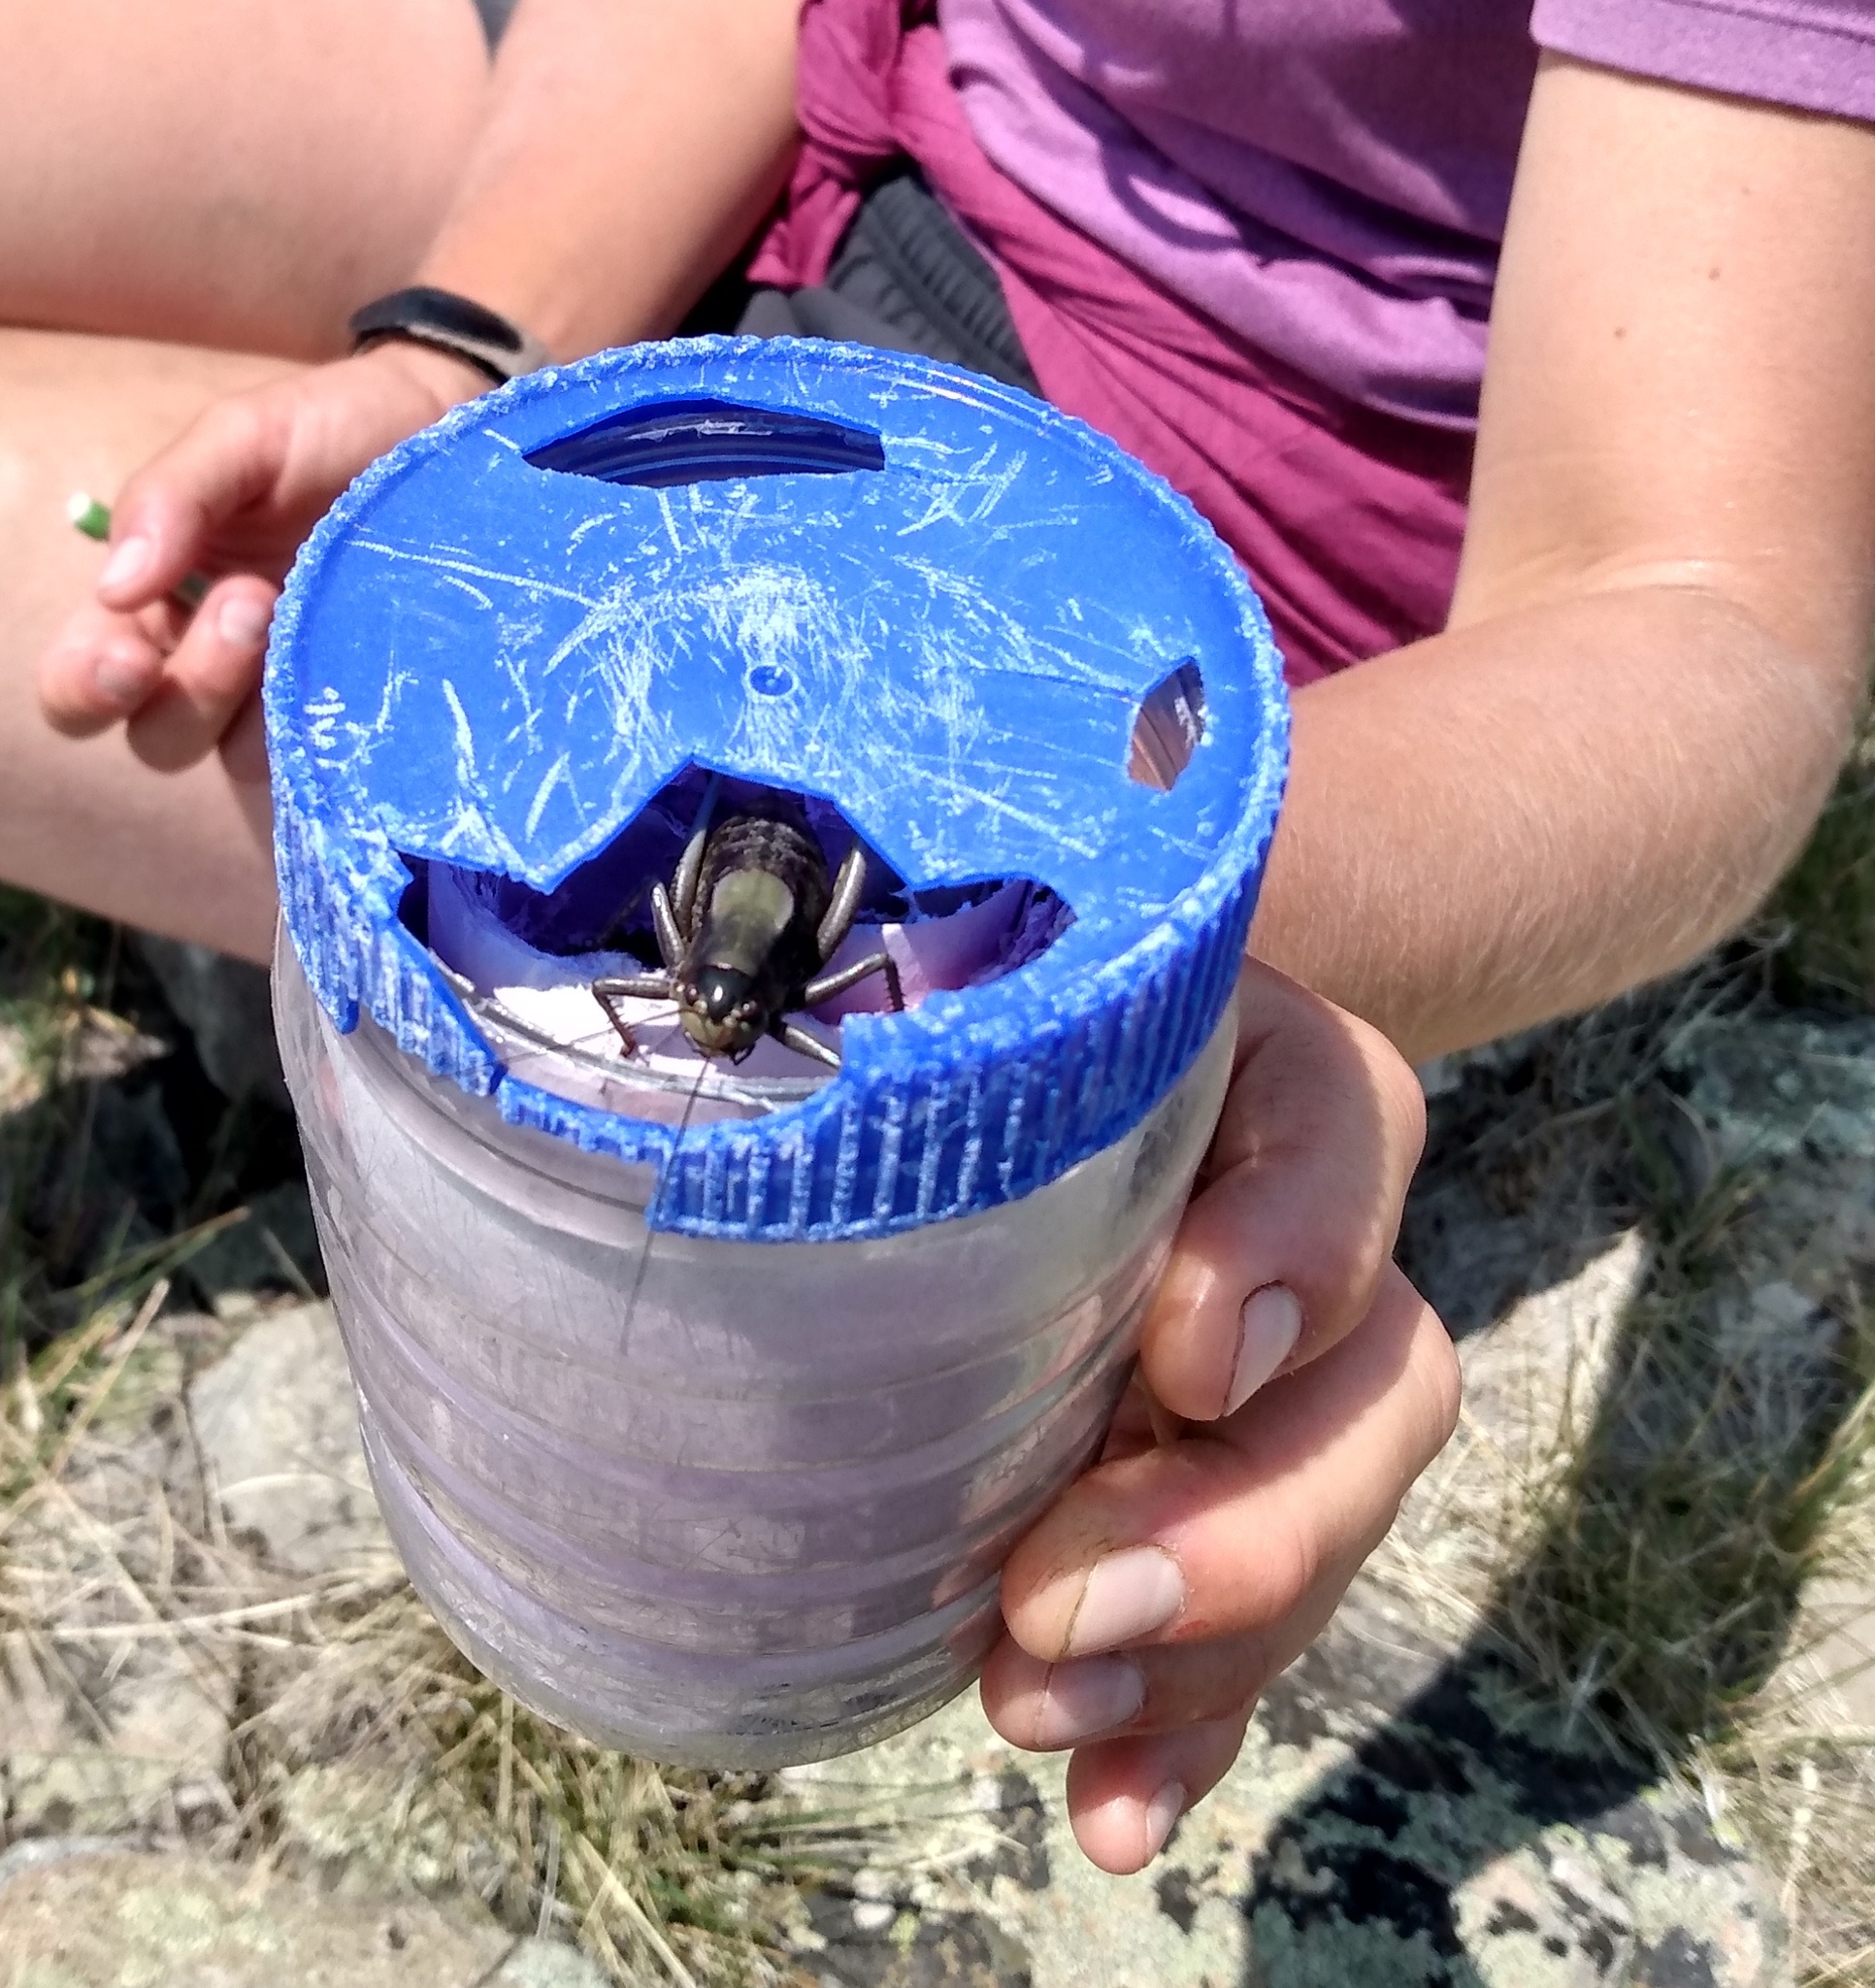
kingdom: Animalia
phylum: Arthropoda
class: Insecta
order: Orthoptera
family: Tettigoniidae
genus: Anabrus
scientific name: Anabrus simplex
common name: Mormon cricket
